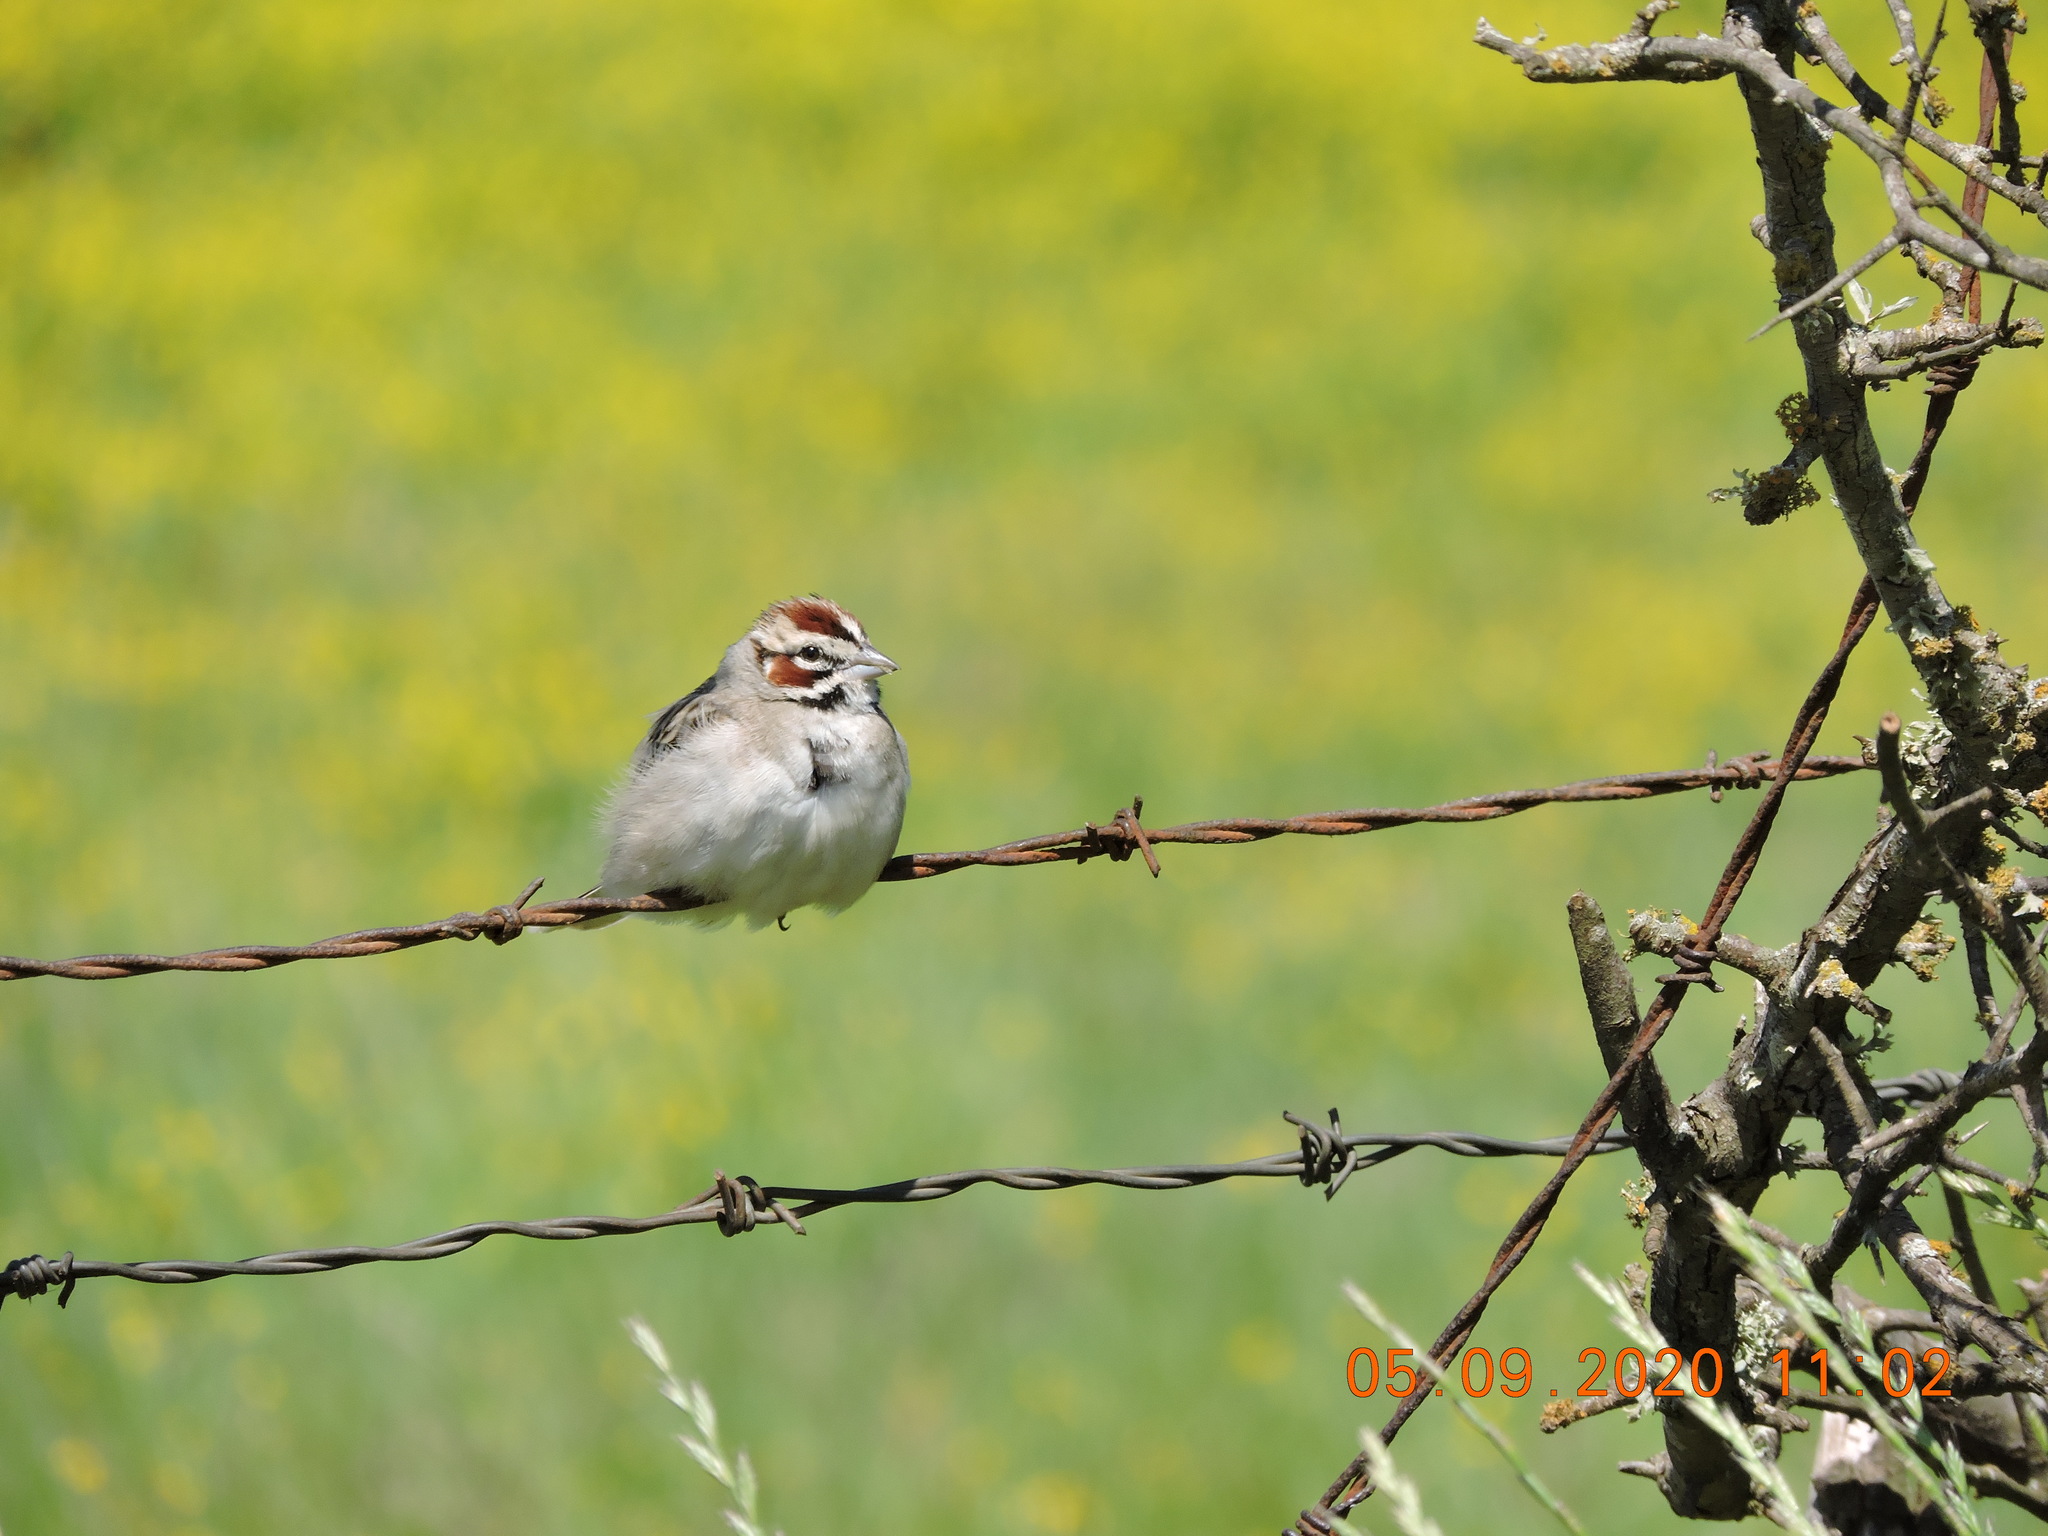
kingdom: Animalia
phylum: Chordata
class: Aves
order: Passeriformes
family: Passerellidae
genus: Chondestes
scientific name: Chondestes grammacus
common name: Lark sparrow
